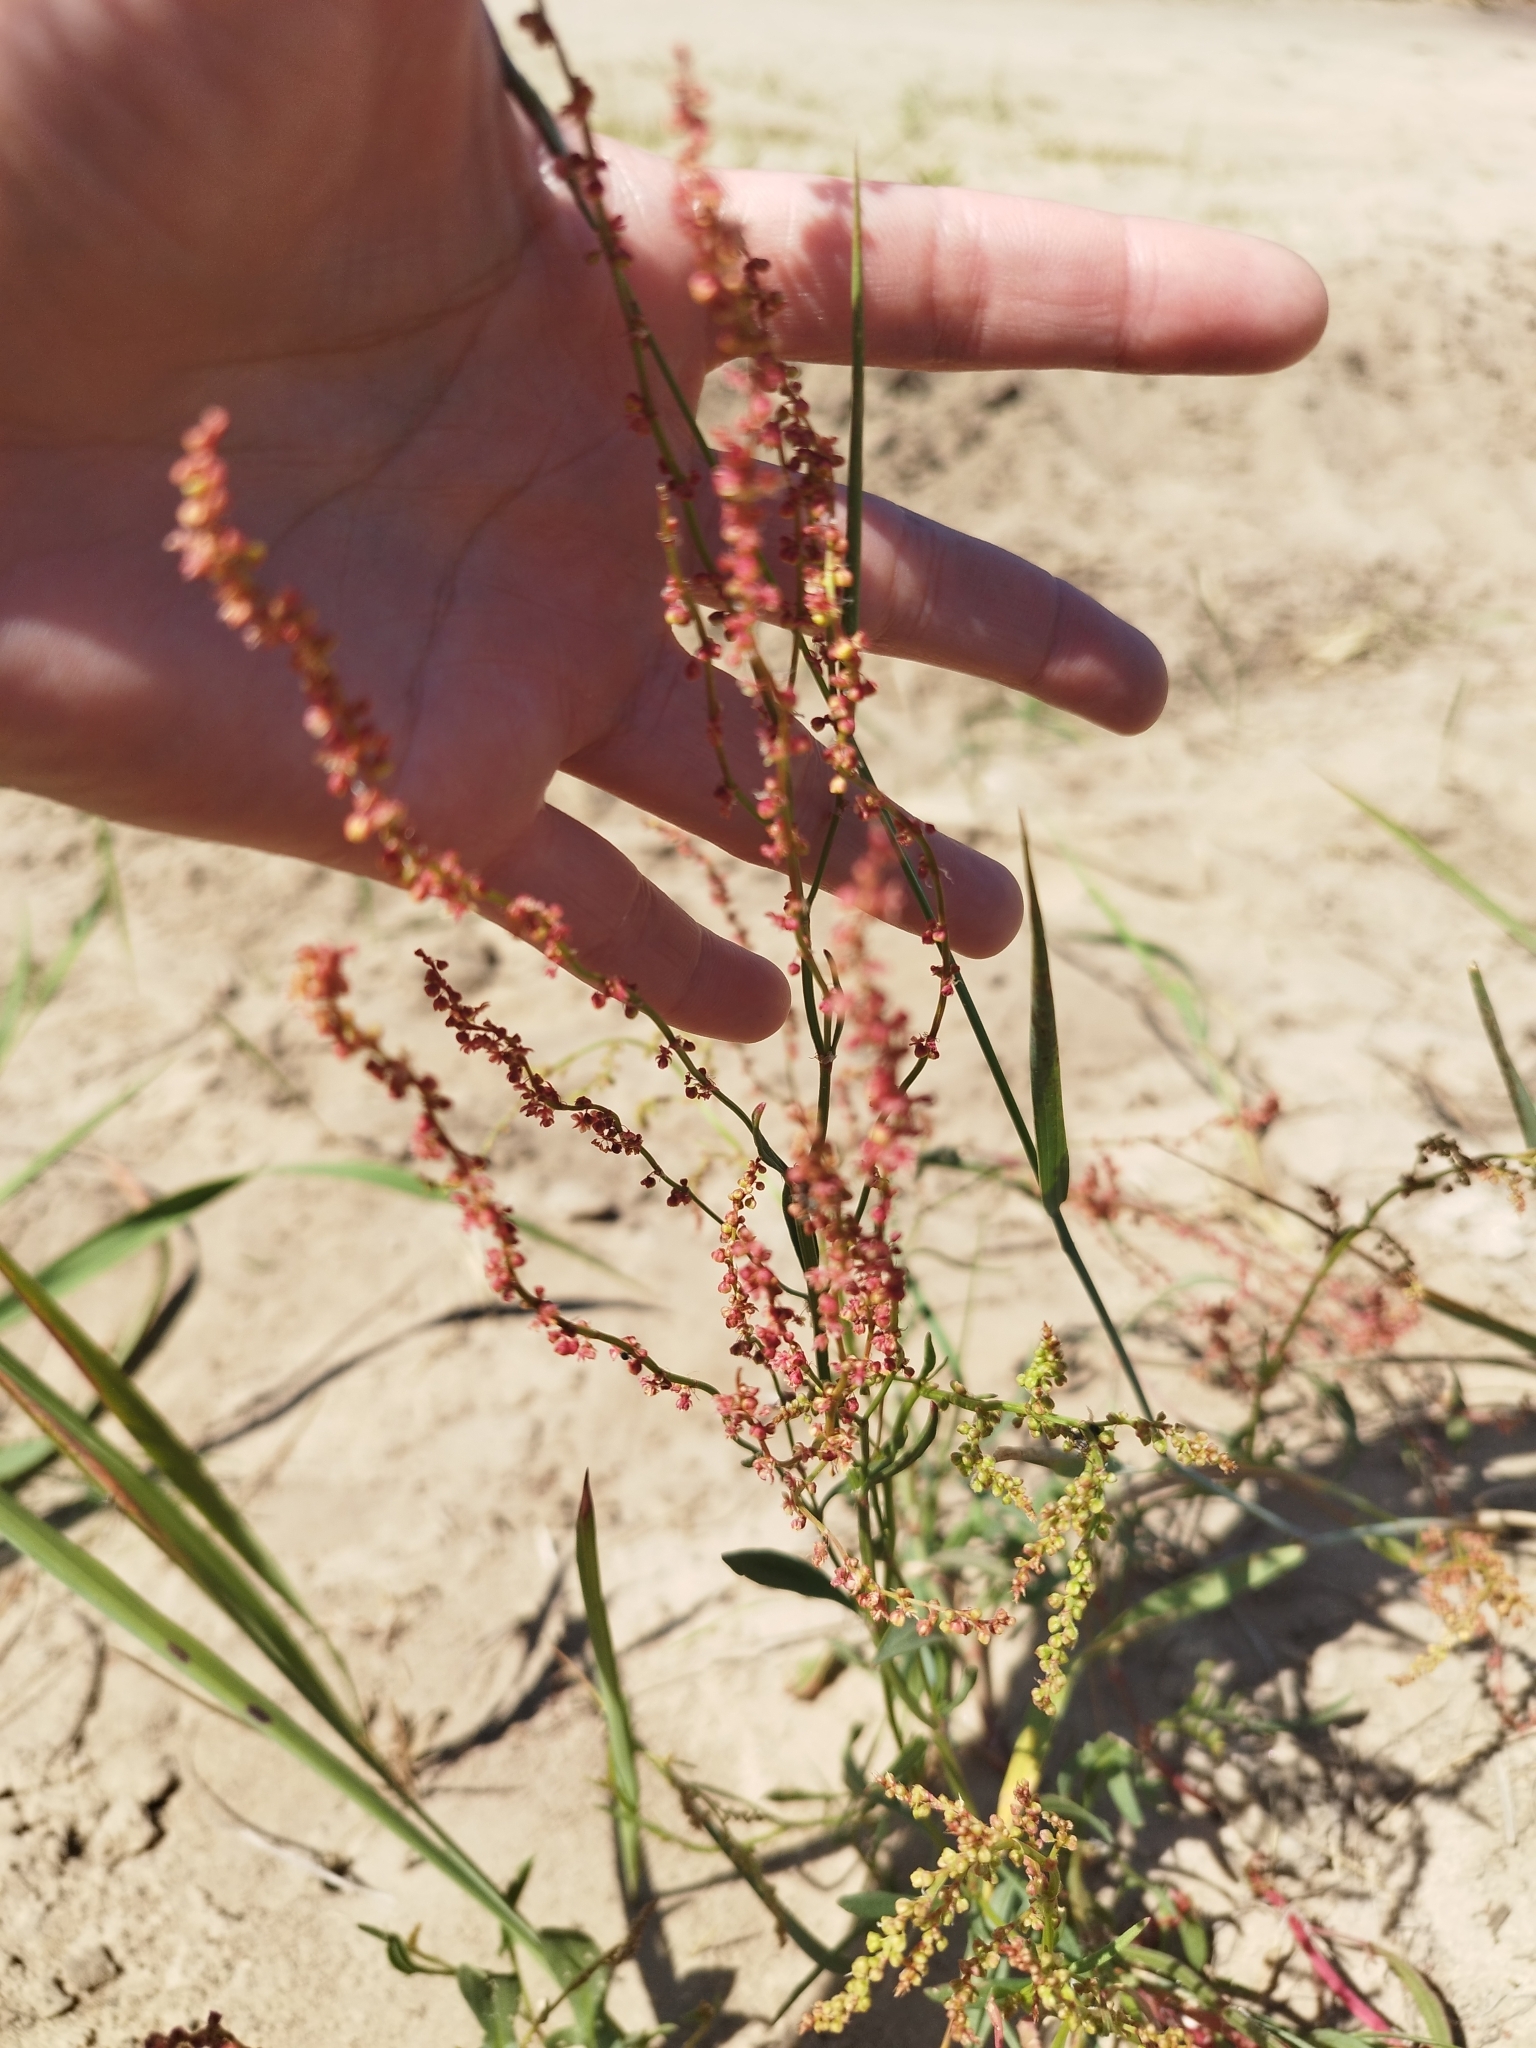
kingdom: Plantae
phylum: Tracheophyta
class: Magnoliopsida
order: Caryophyllales
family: Polygonaceae
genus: Rumex
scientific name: Rumex acetosella
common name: Common sheep sorrel
